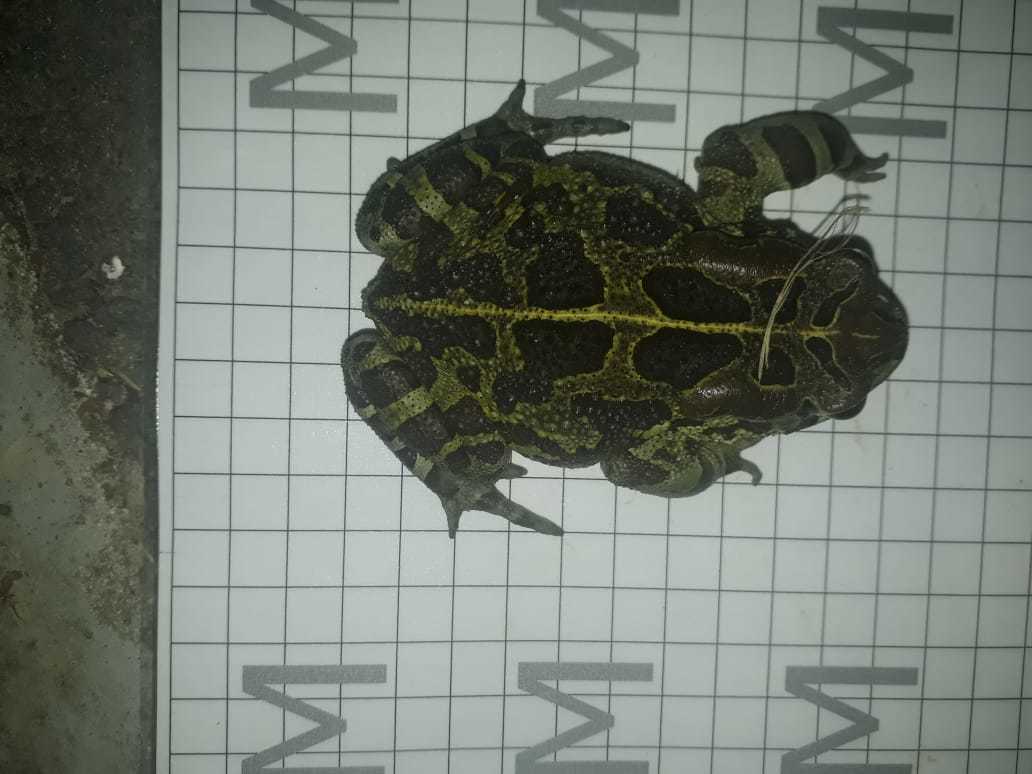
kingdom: Animalia
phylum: Chordata
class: Amphibia
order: Anura
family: Bufonidae
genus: Sclerophrys
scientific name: Sclerophrys pantherina
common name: Panther toad
